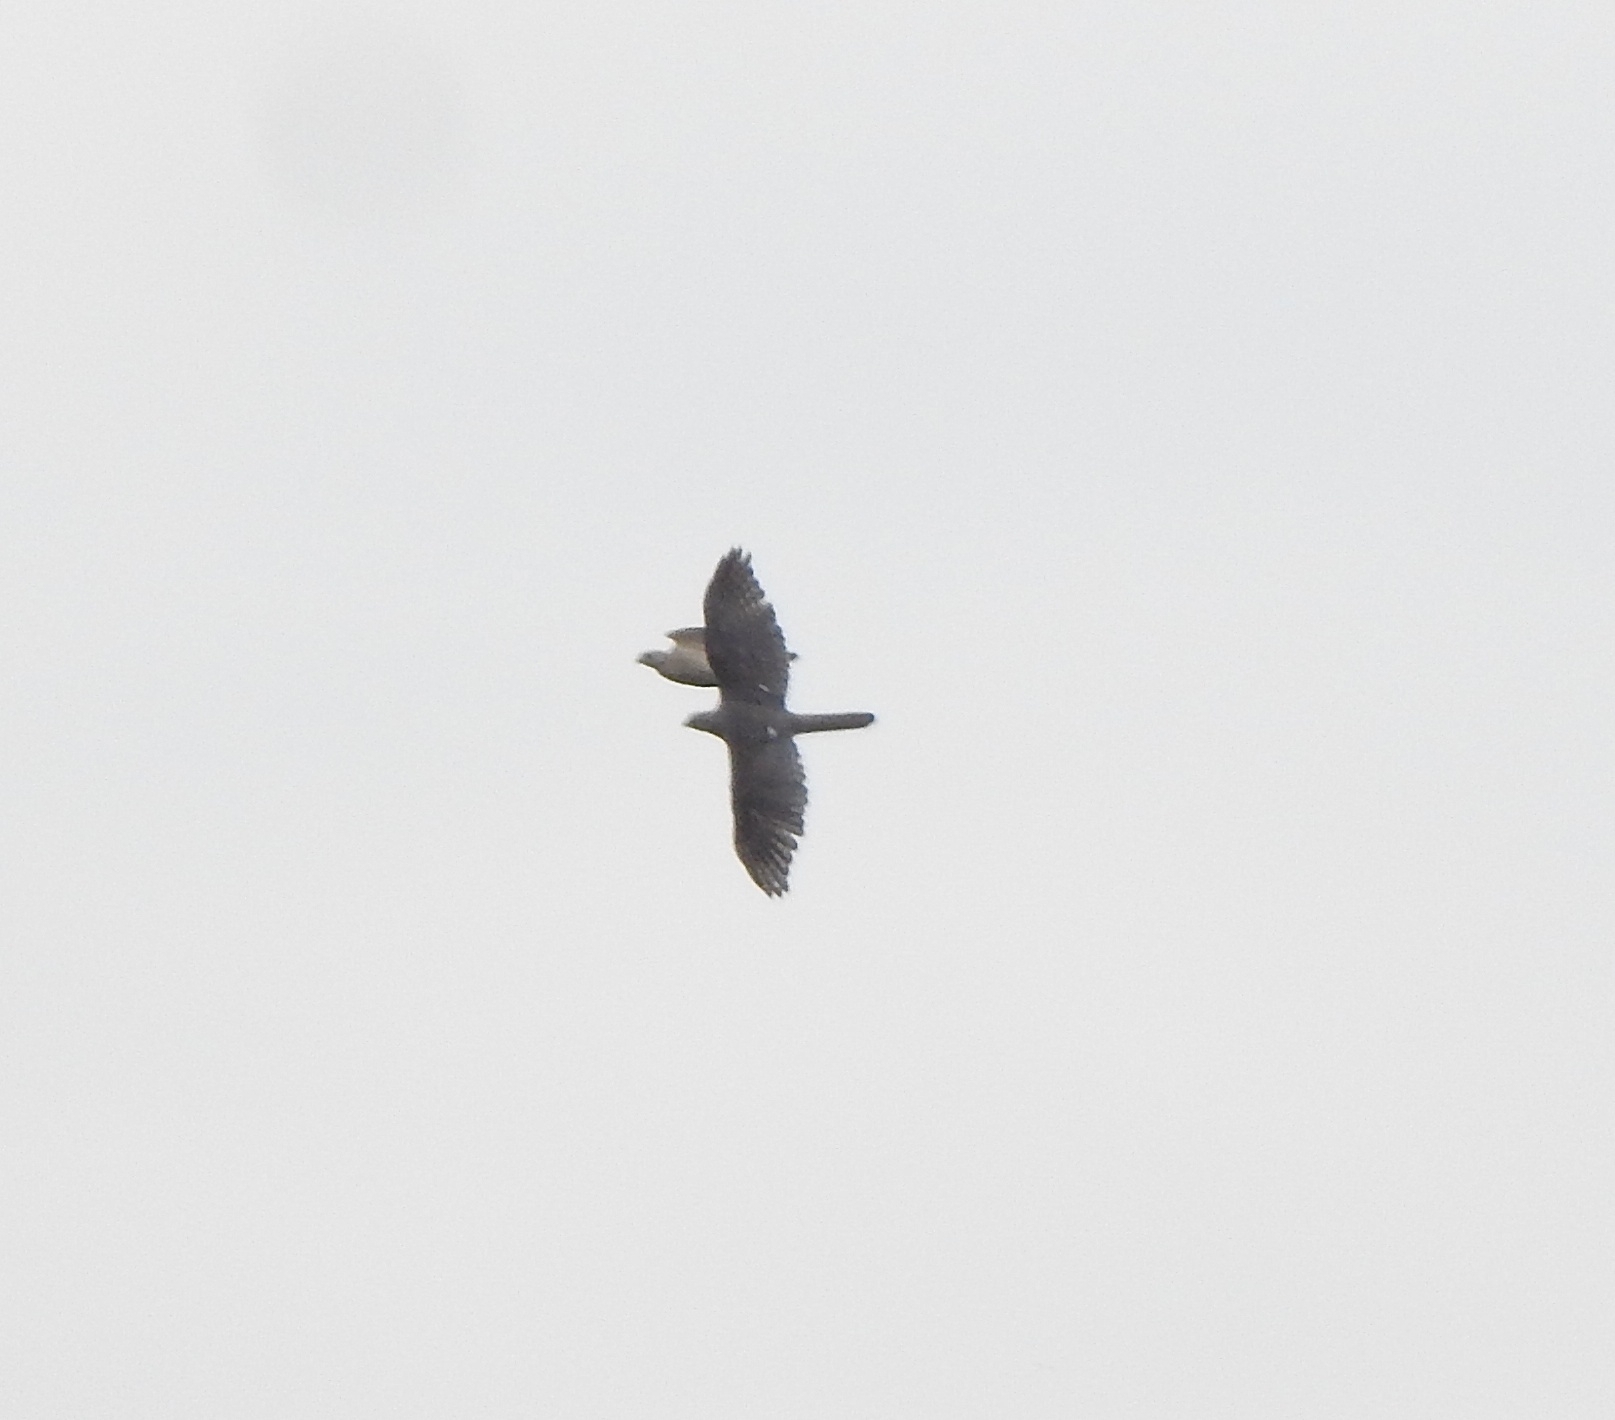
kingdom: Animalia
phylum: Chordata
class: Aves
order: Accipitriformes
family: Accipitridae
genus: Accipiter
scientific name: Accipiter badius
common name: Shikra
